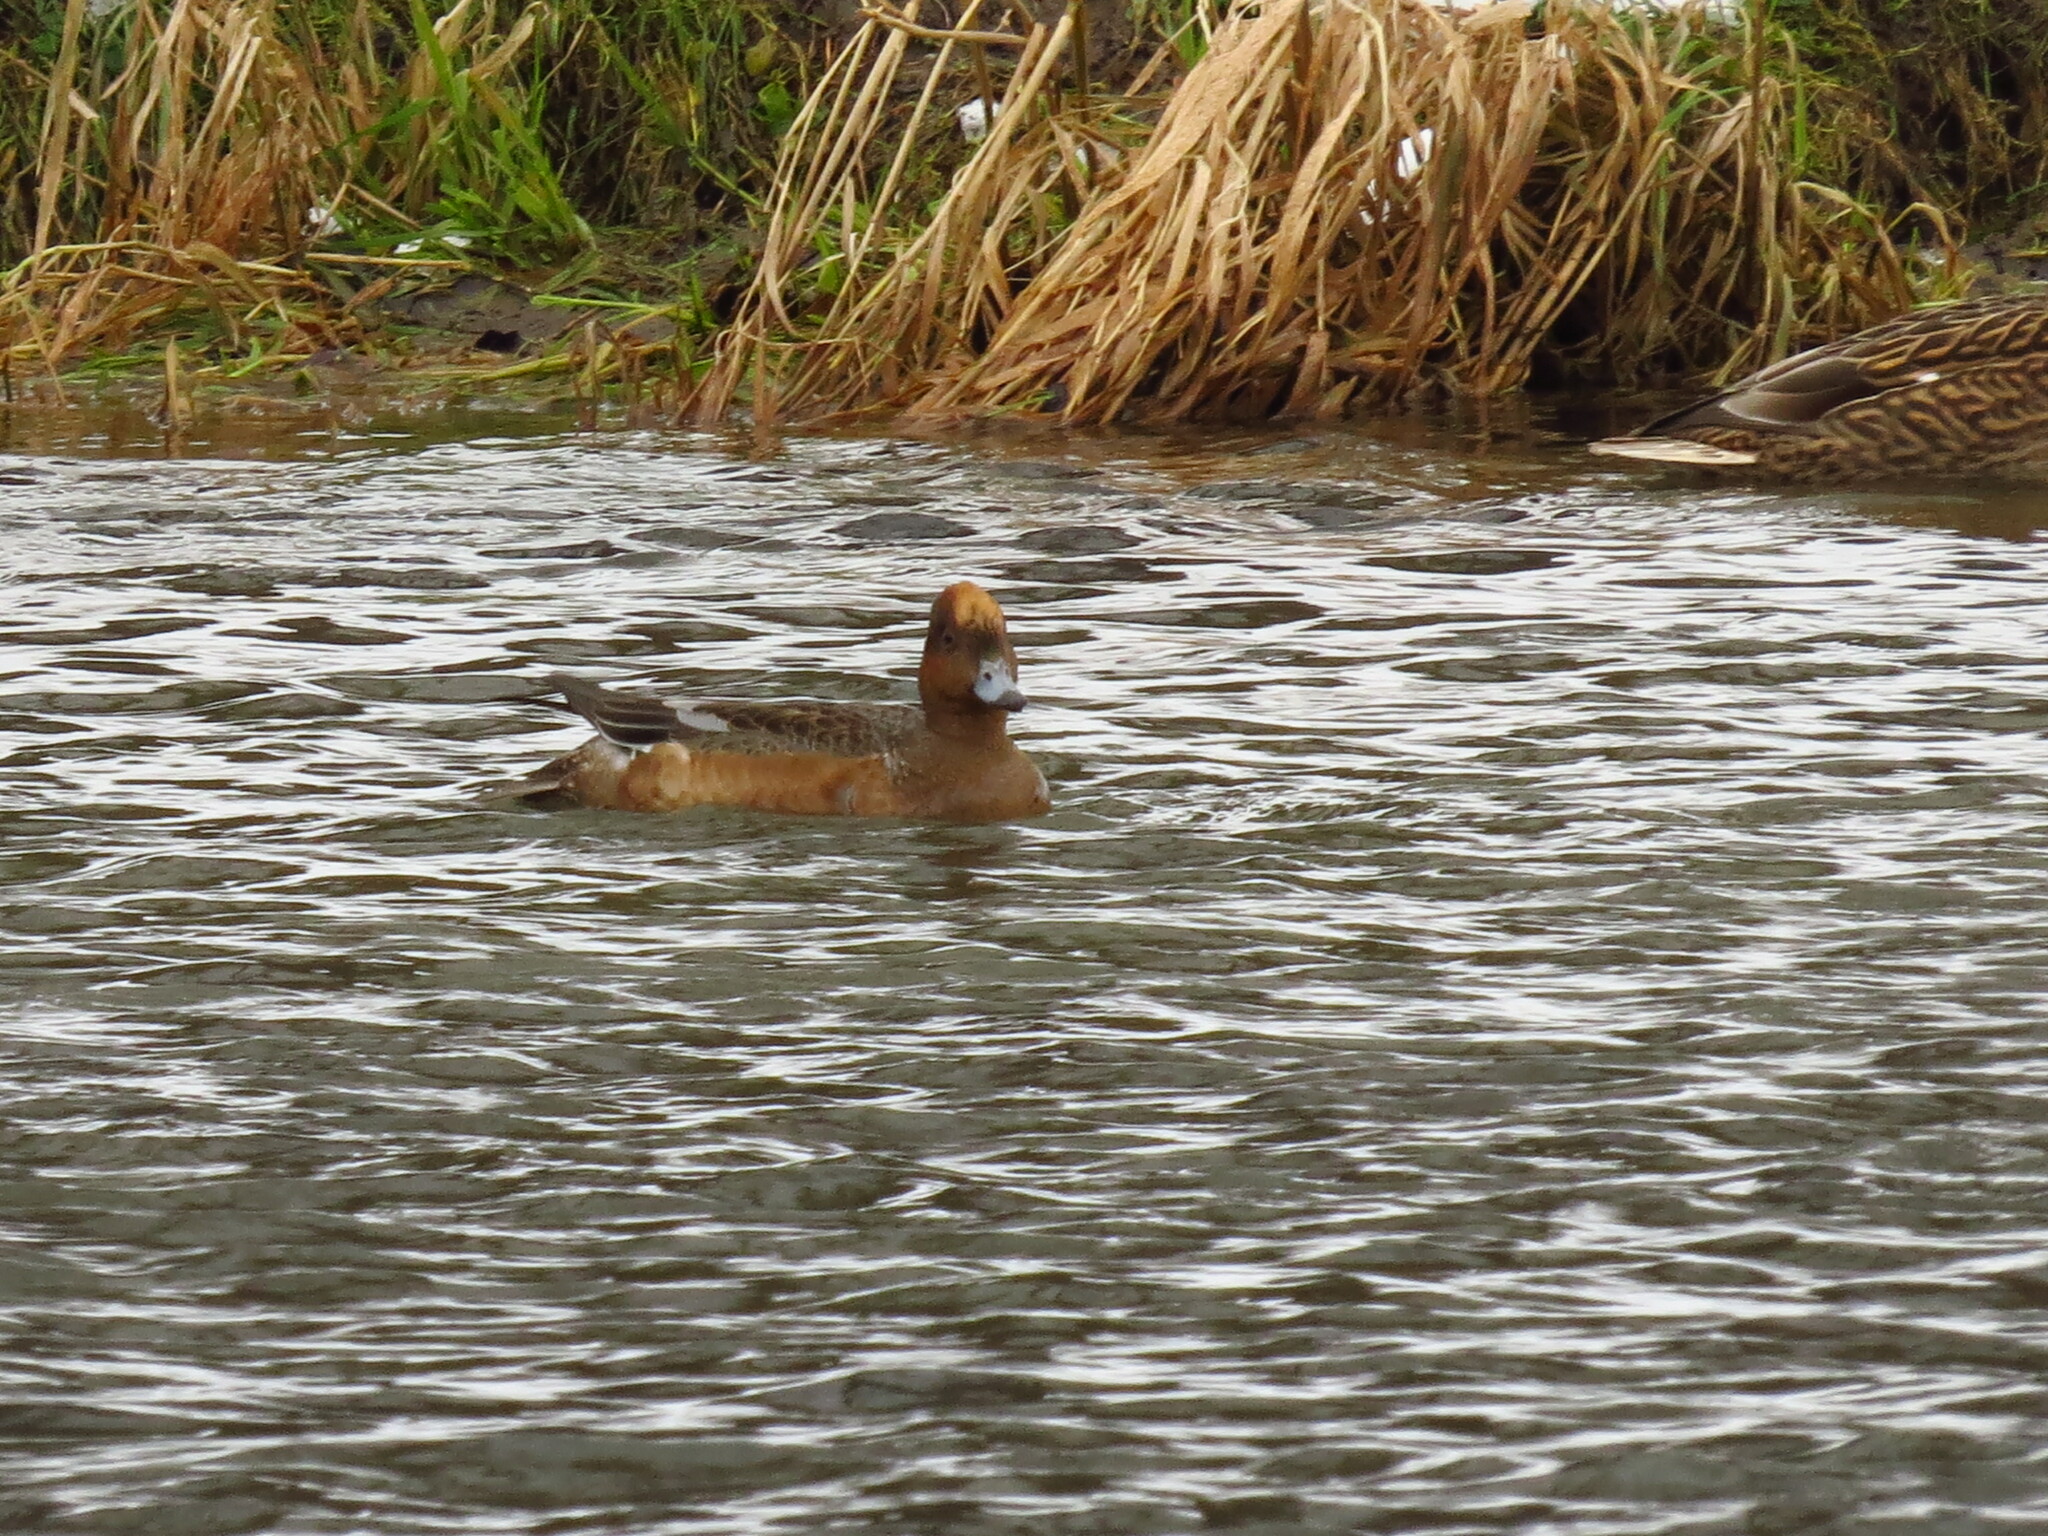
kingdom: Animalia
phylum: Chordata
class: Aves
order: Anseriformes
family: Anatidae
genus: Mareca
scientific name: Mareca penelope
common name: Eurasian wigeon
